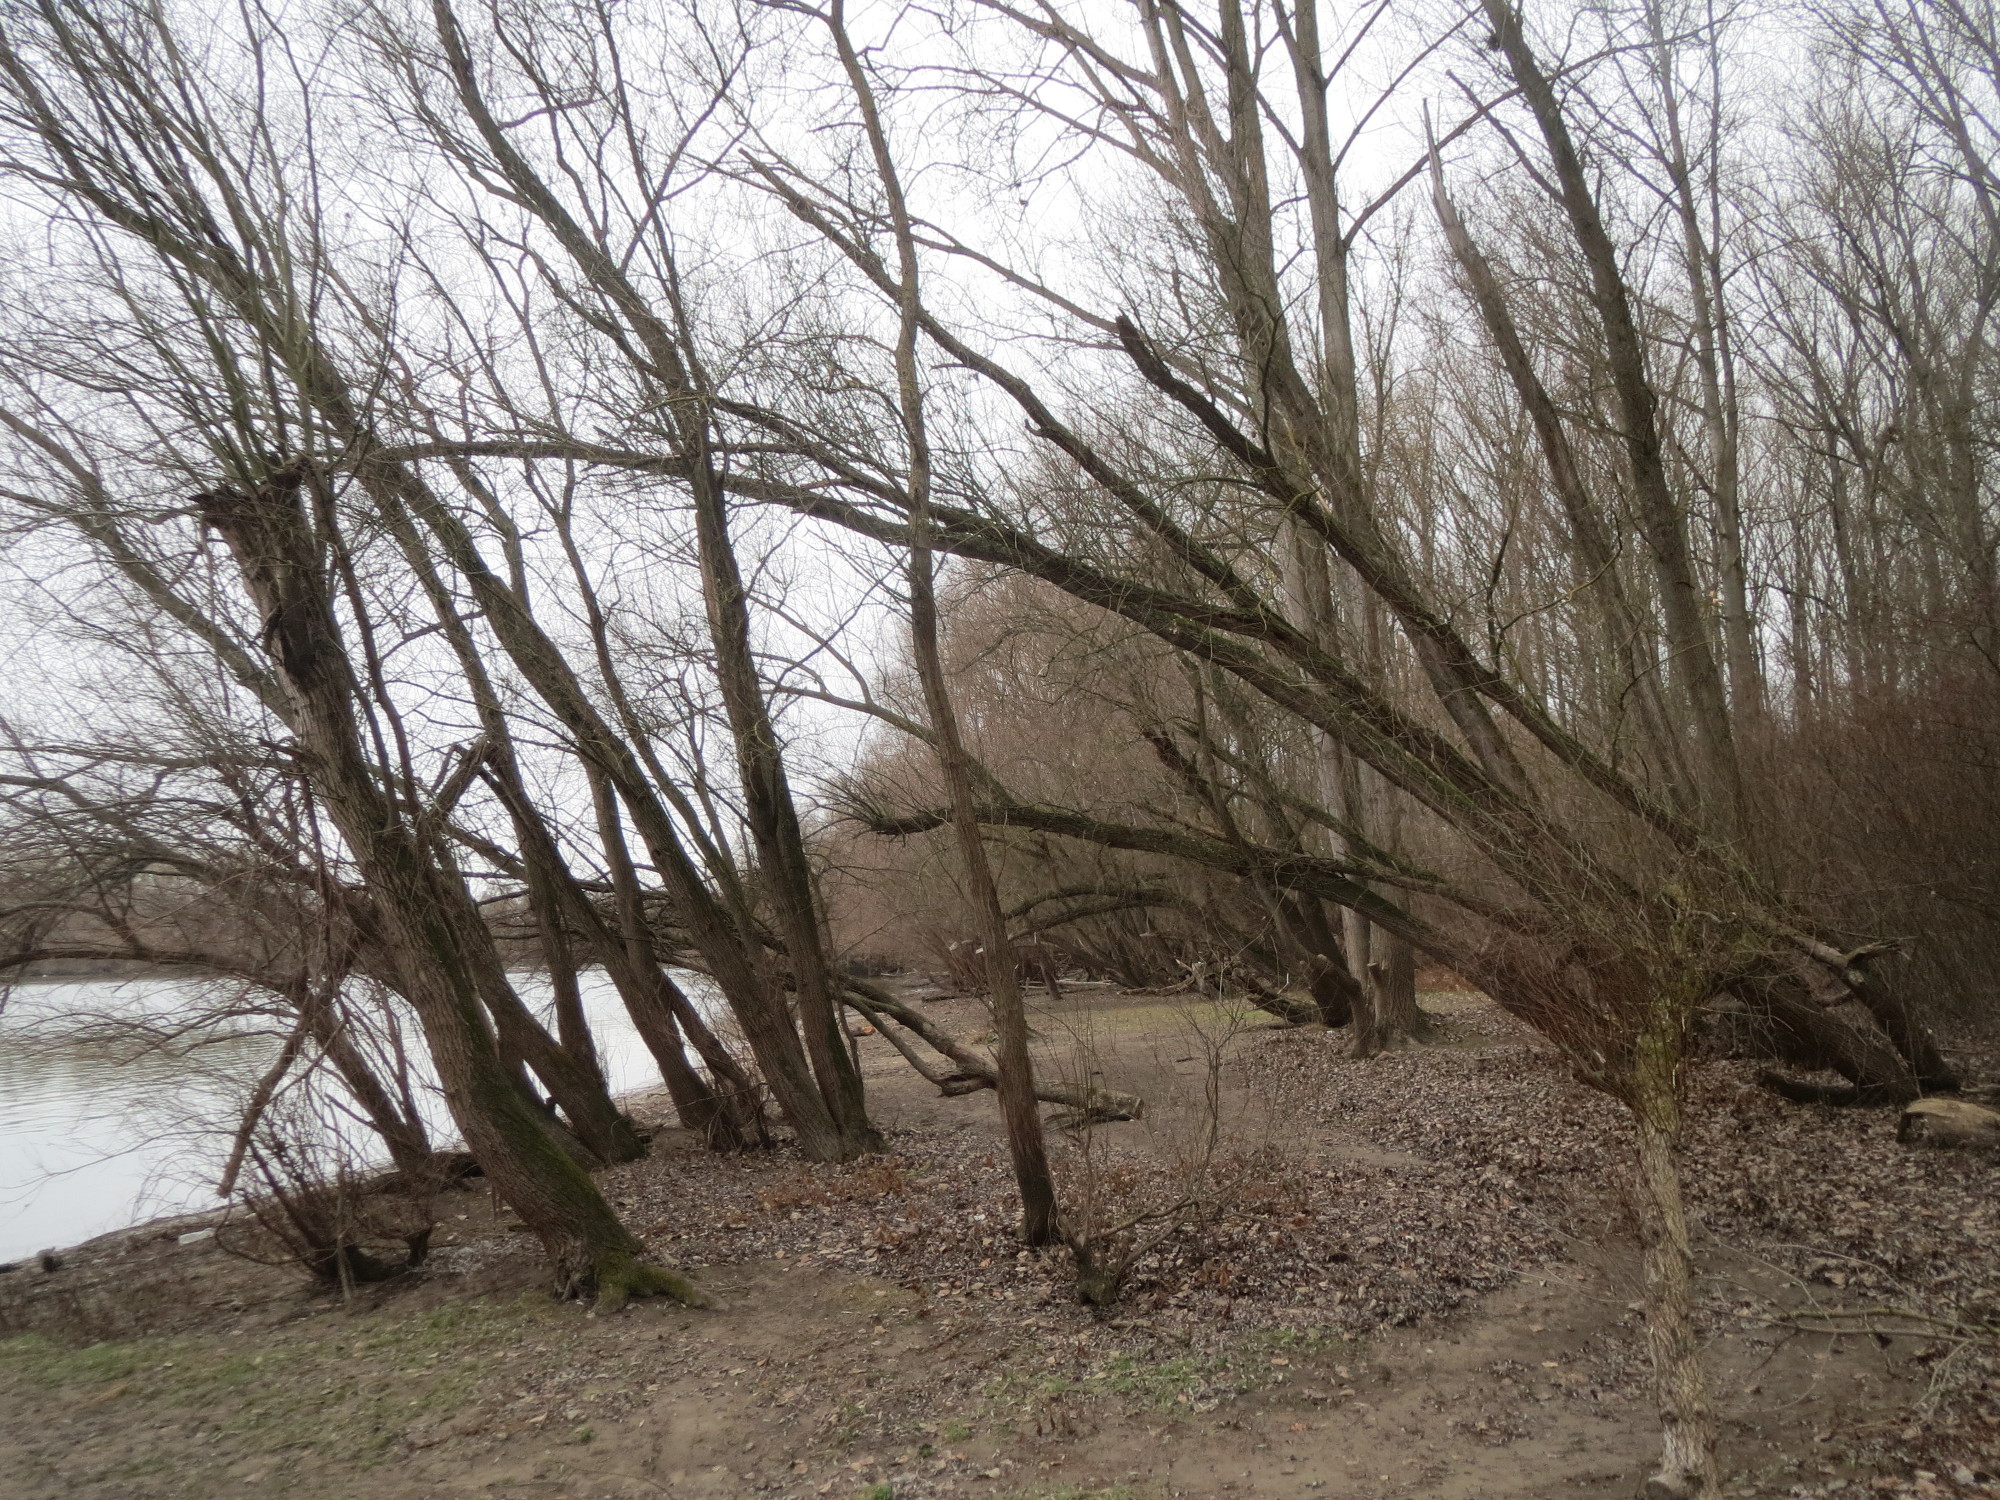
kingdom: Plantae
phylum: Tracheophyta
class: Magnoliopsida
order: Malpighiales
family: Salicaceae
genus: Salix
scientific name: Salix alba
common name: White willow
